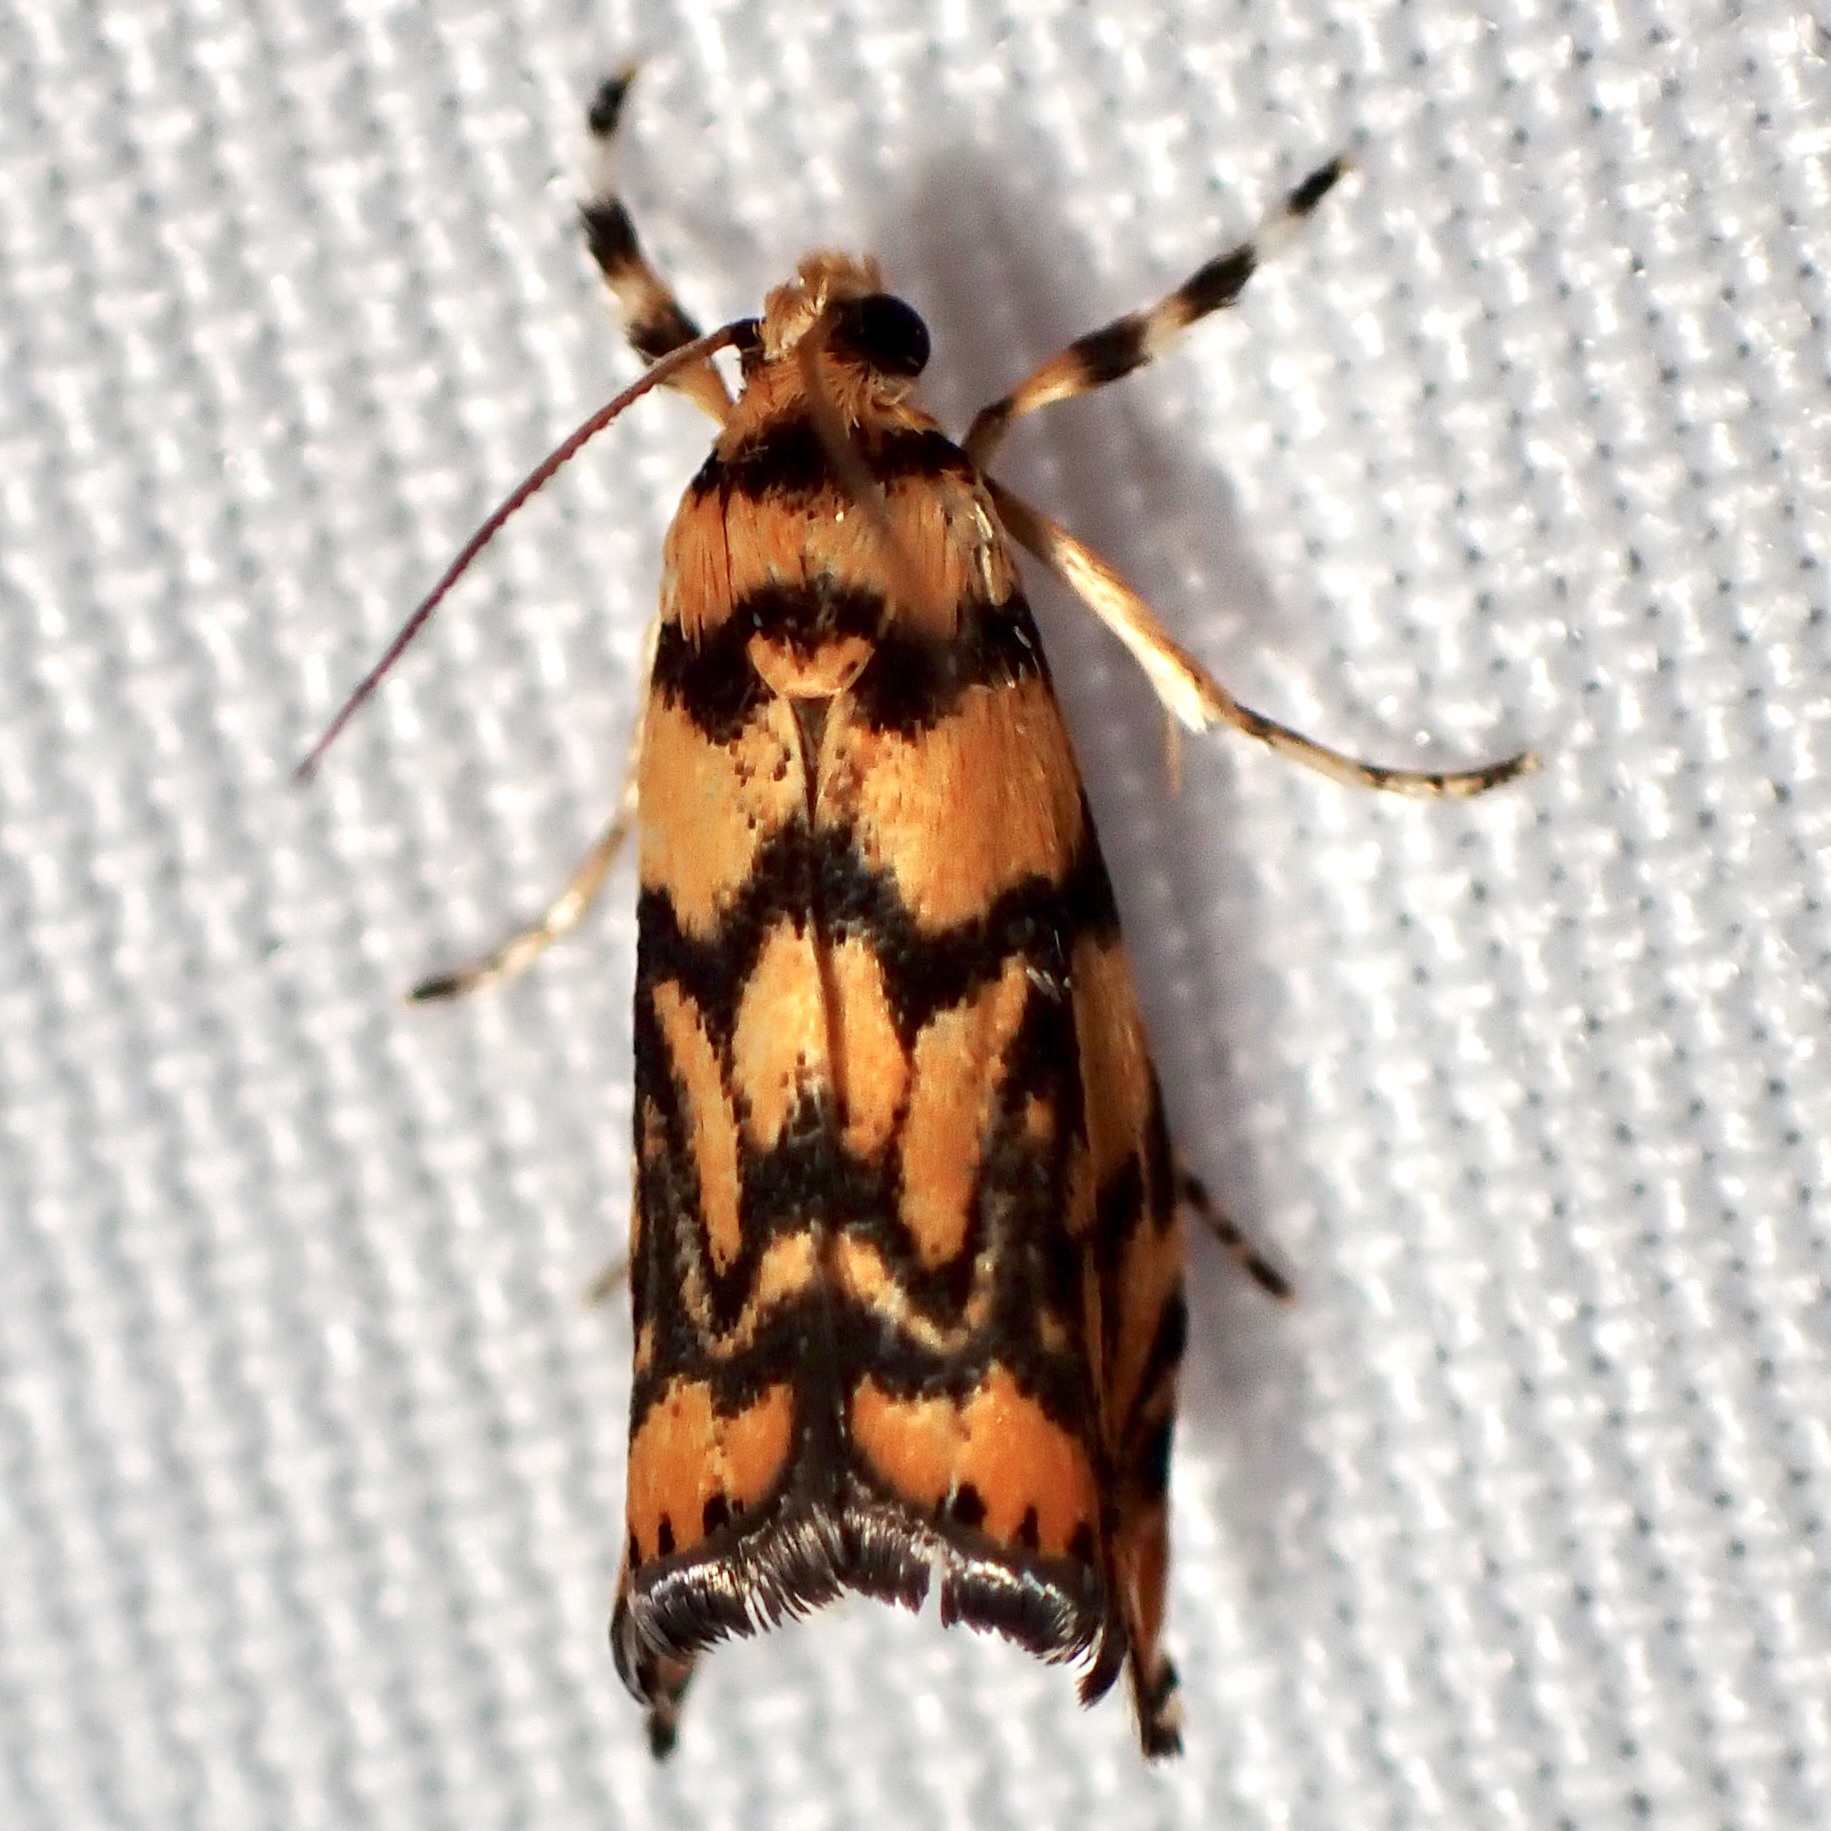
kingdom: Animalia
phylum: Arthropoda
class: Insecta
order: Lepidoptera
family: Crambidae
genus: Diptychophora
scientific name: Diptychophora harlequinalis
